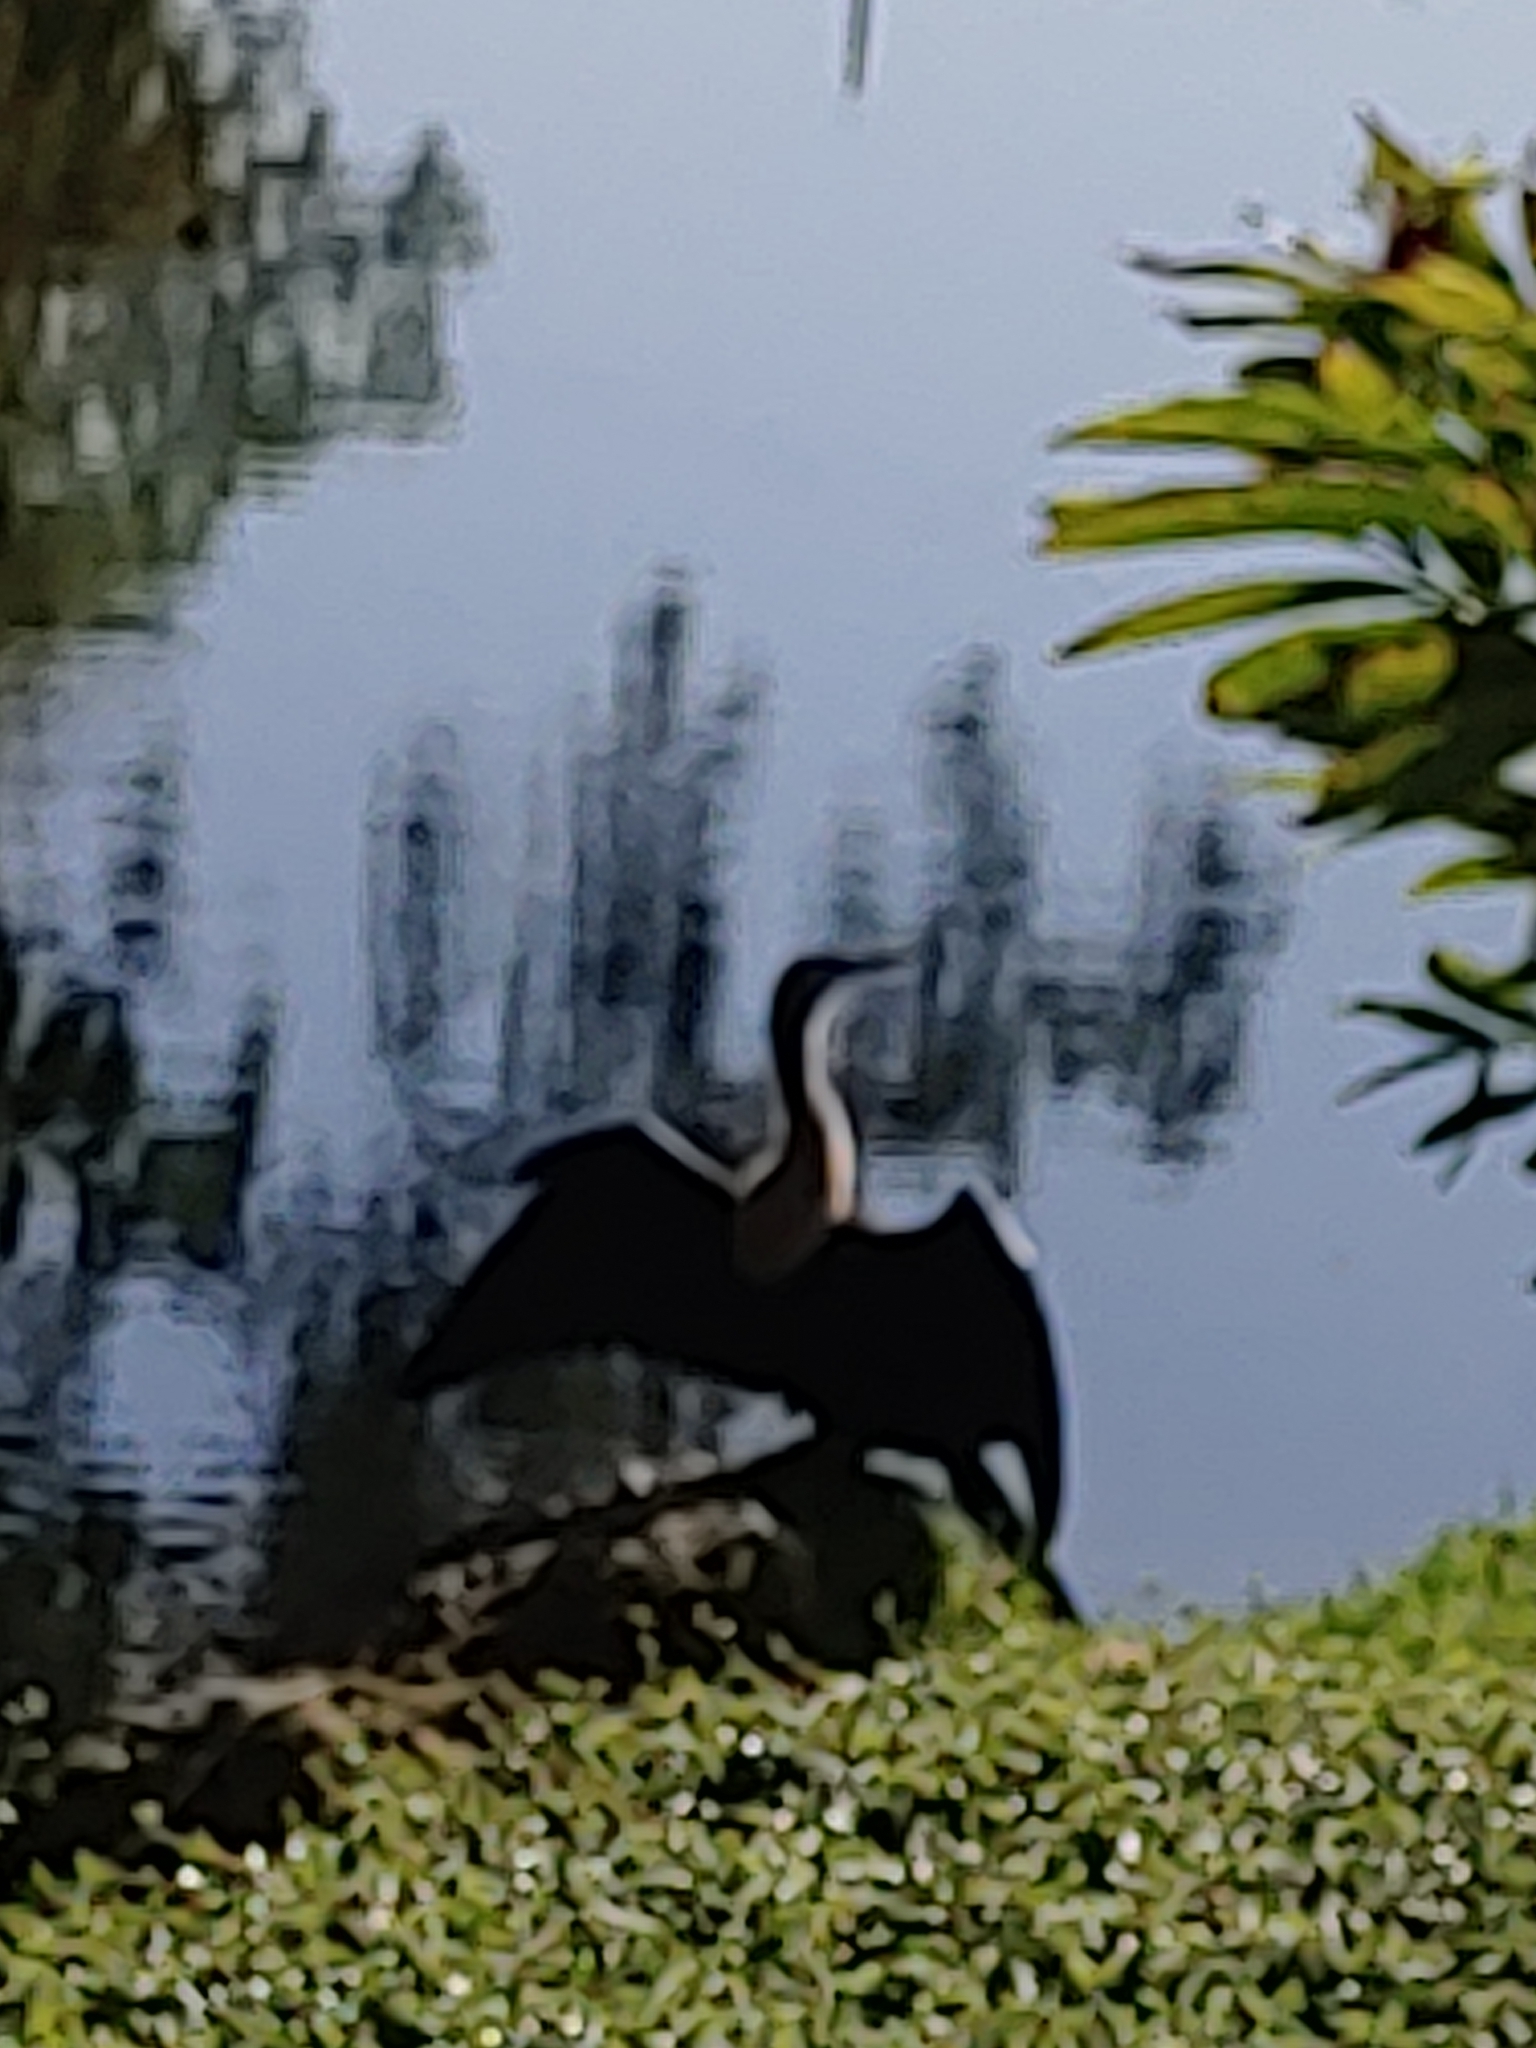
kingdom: Animalia
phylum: Chordata
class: Aves
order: Suliformes
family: Anhingidae
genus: Anhinga
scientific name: Anhinga anhinga
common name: Anhinga
